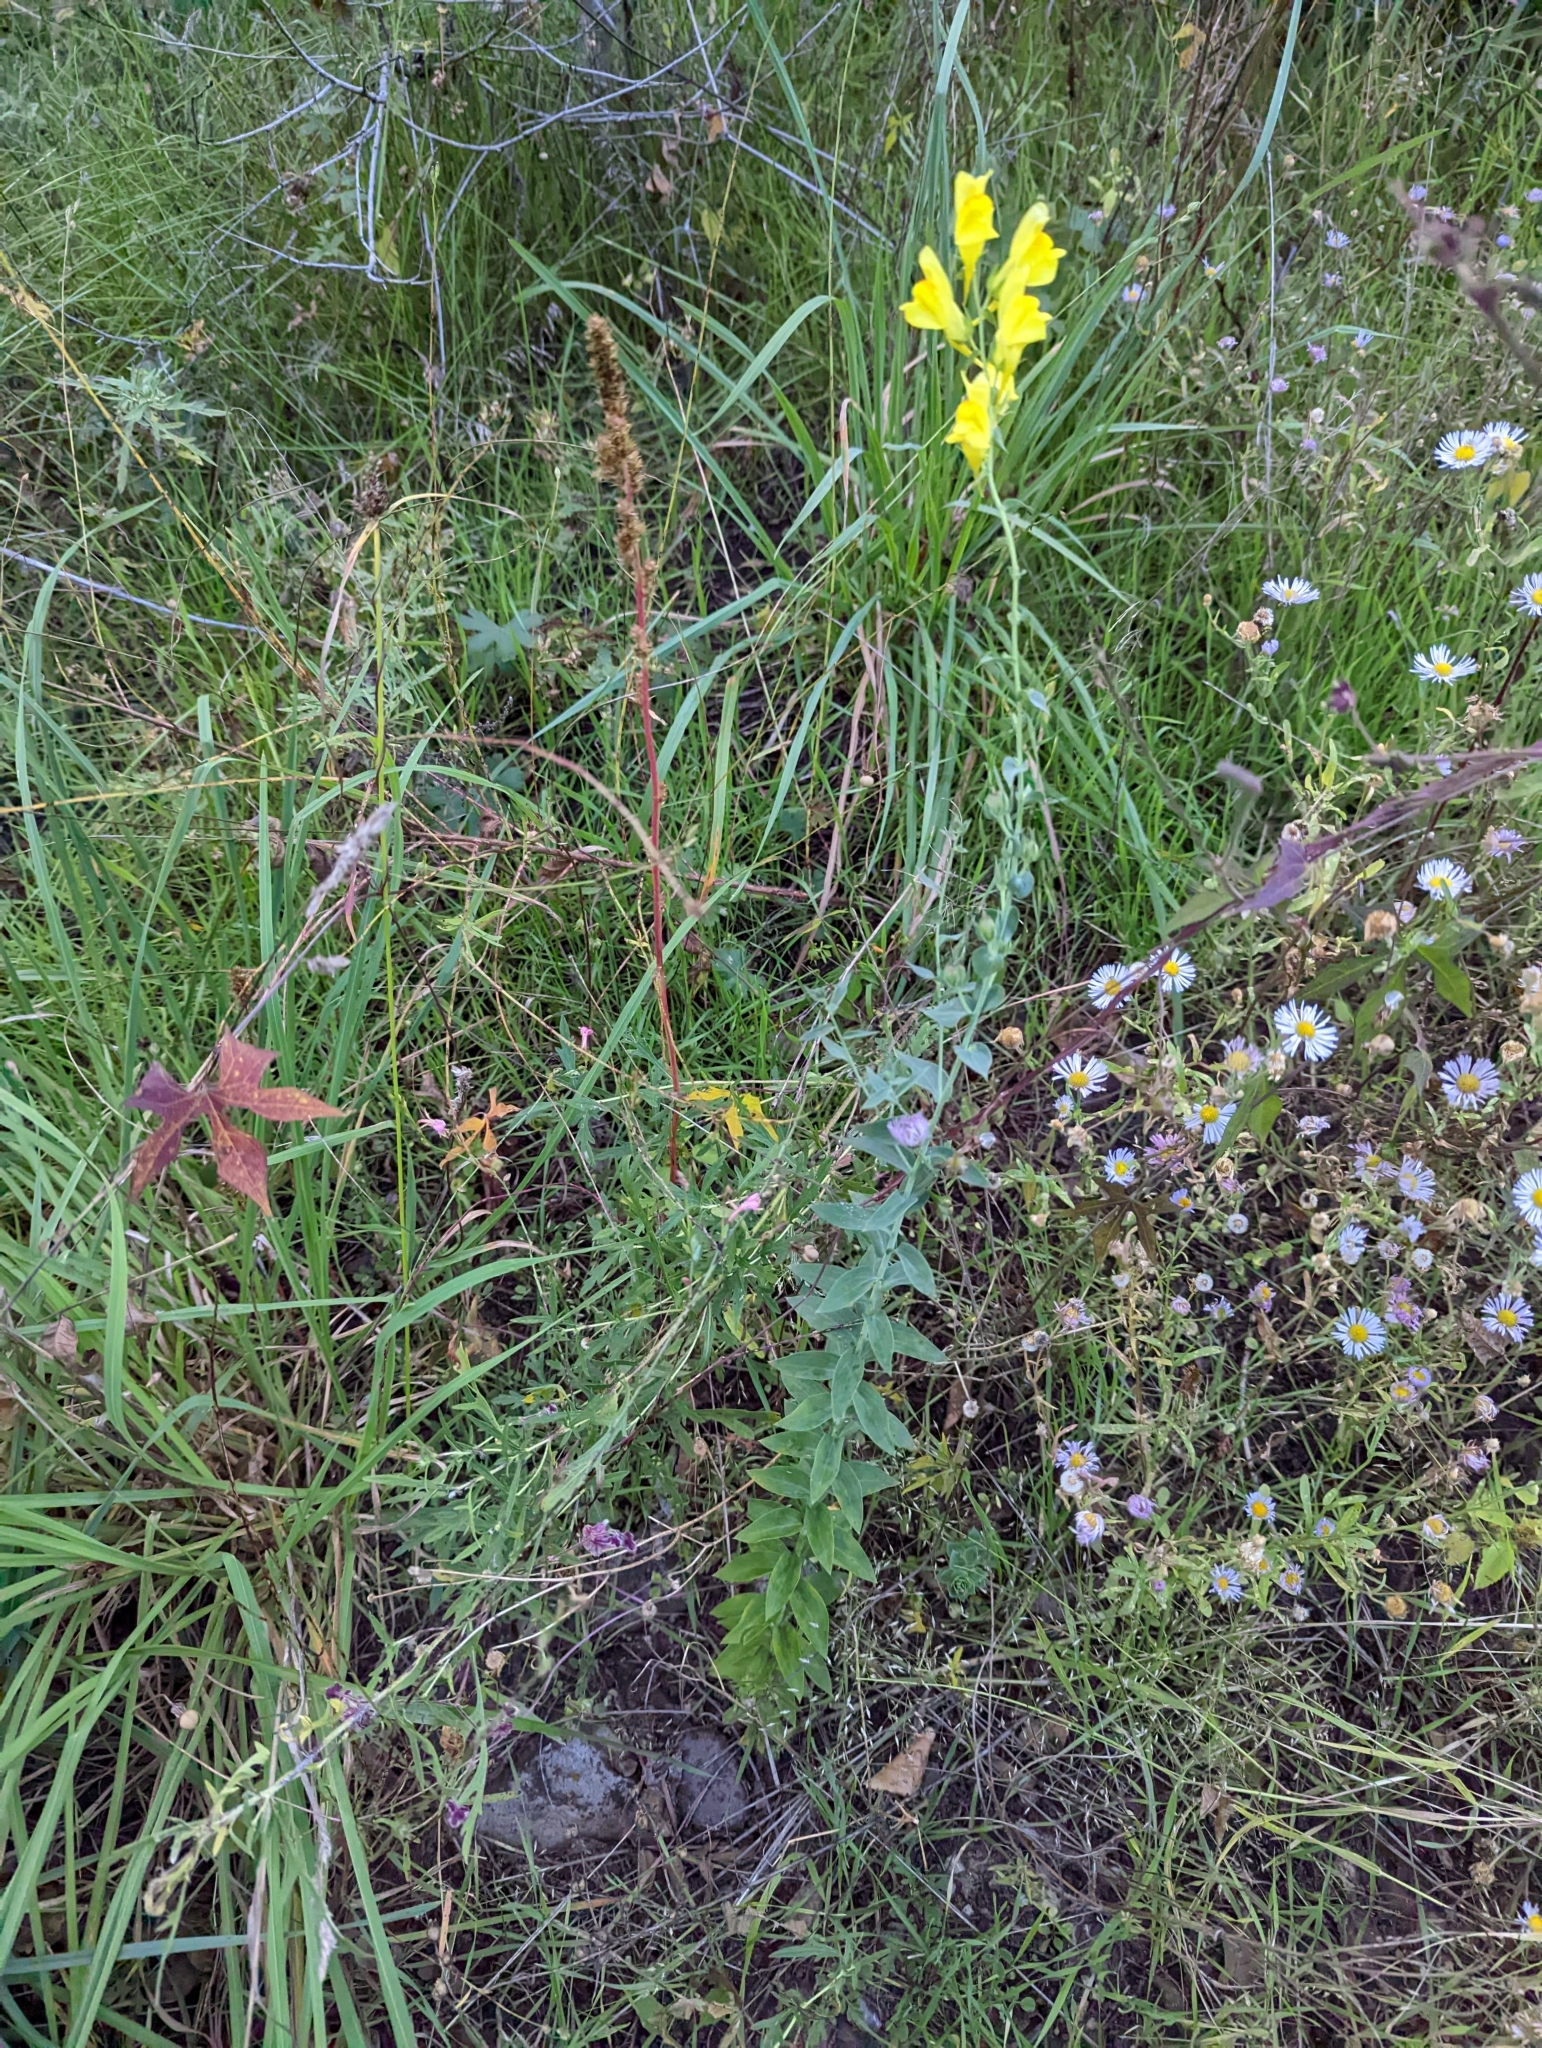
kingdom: Plantae
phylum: Tracheophyta
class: Magnoliopsida
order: Lamiales
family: Plantaginaceae
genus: Linaria
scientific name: Linaria dalmatica
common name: Dalmatian toadflax
